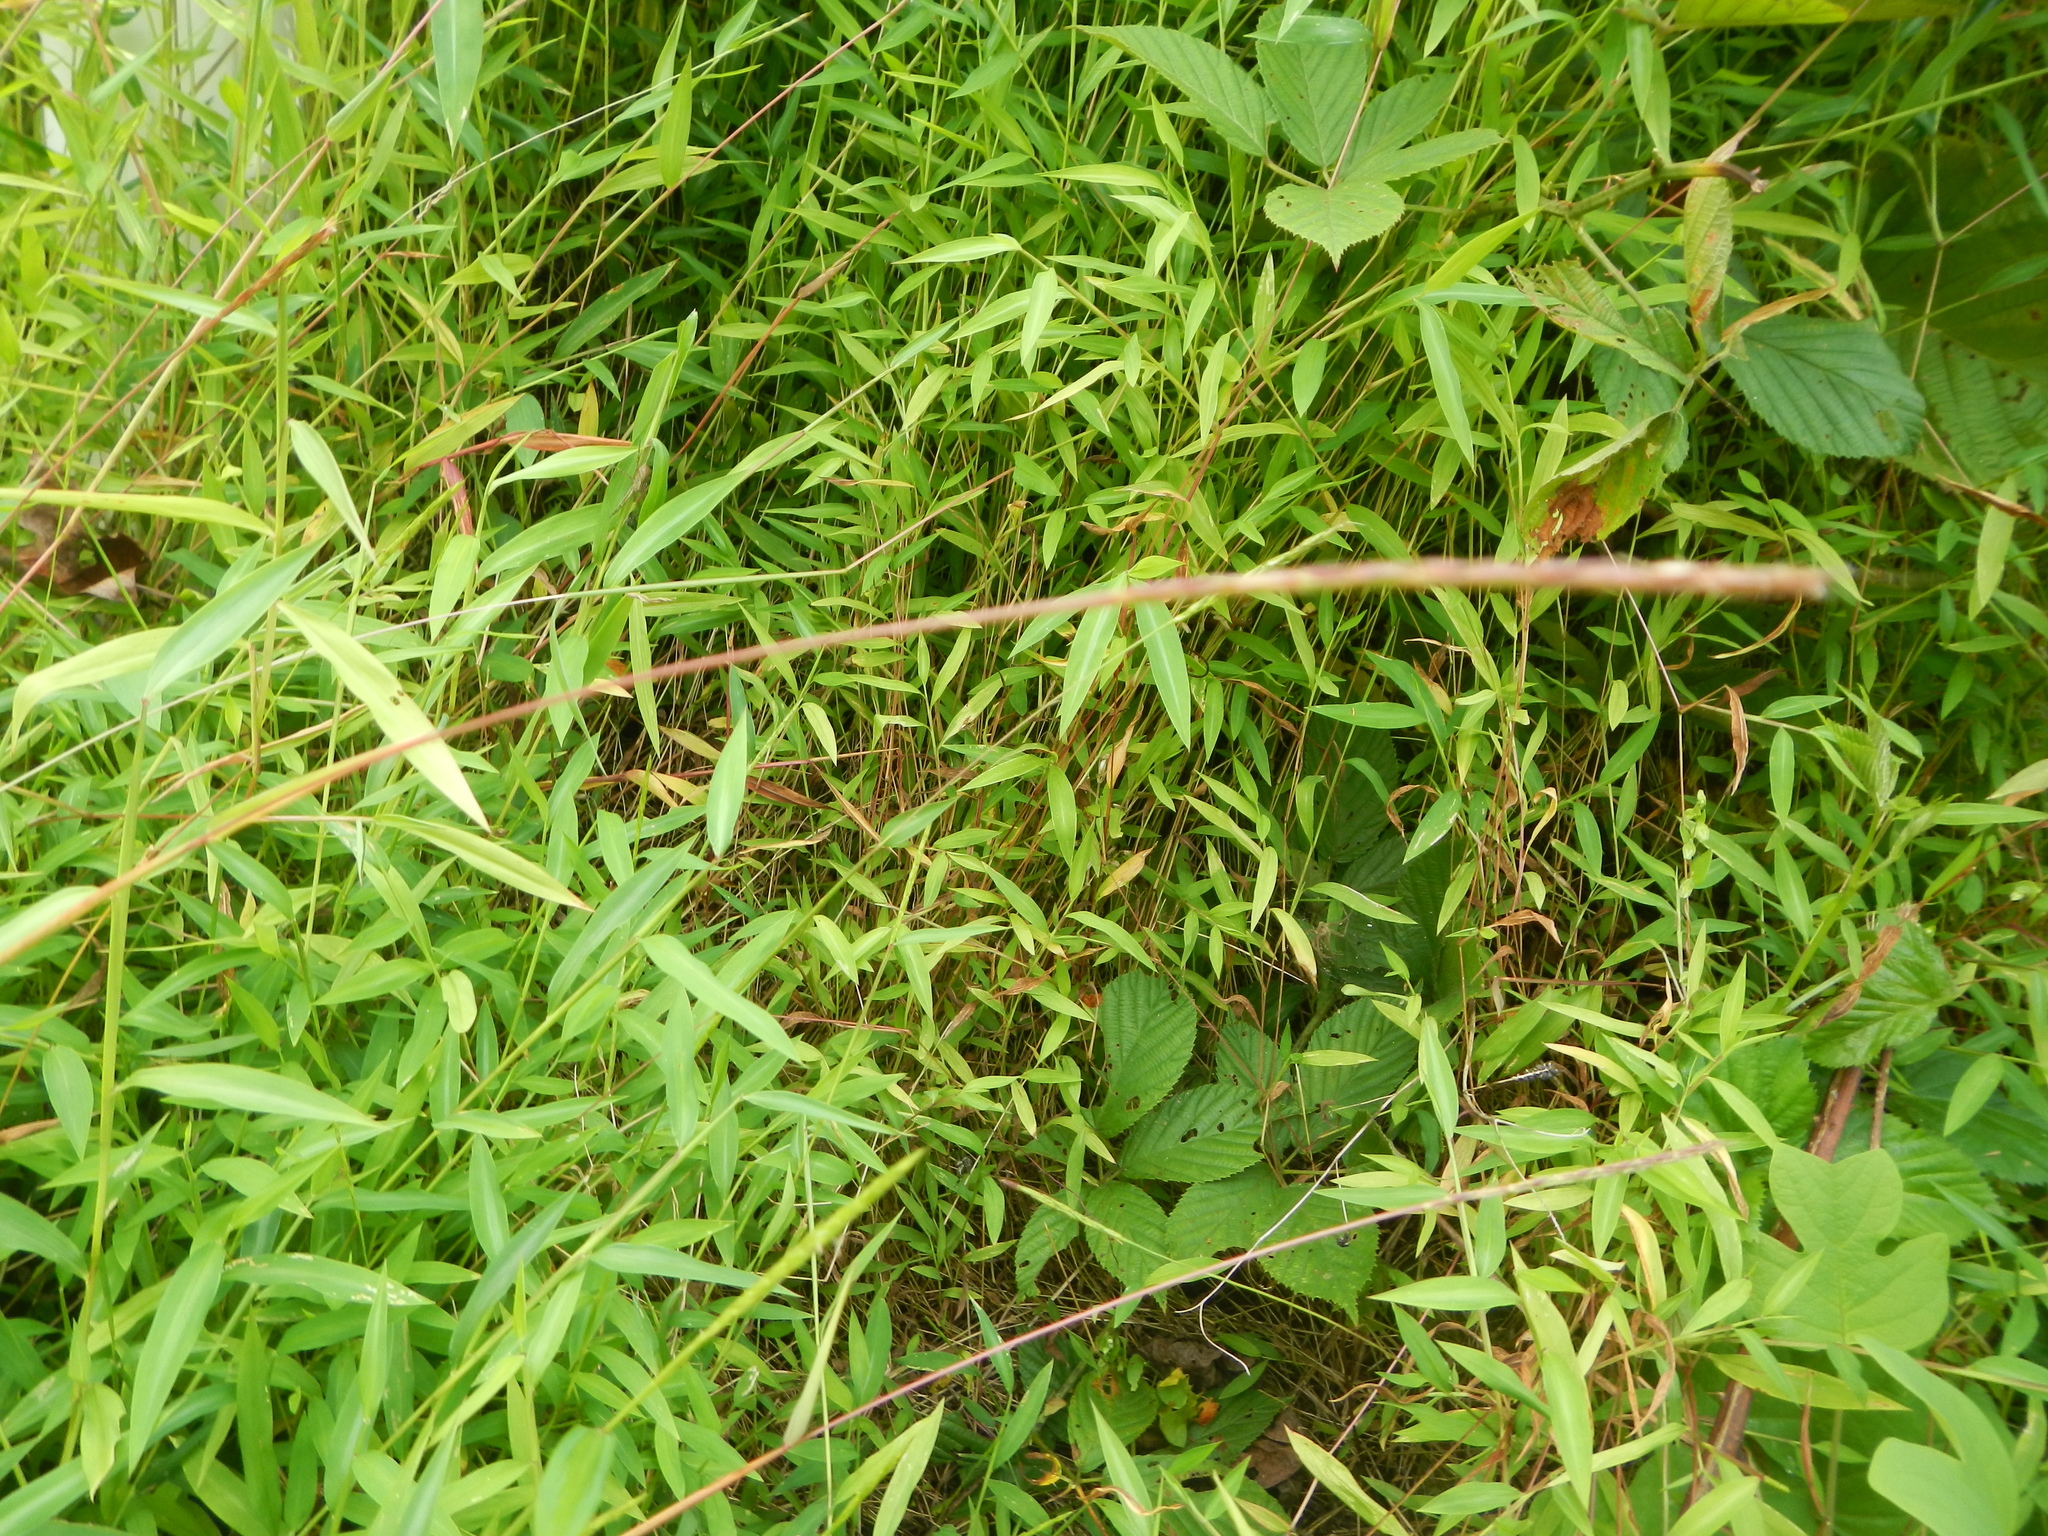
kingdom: Plantae
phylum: Tracheophyta
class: Liliopsida
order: Poales
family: Poaceae
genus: Microstegium
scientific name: Microstegium vimineum
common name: Japanese stiltgrass
